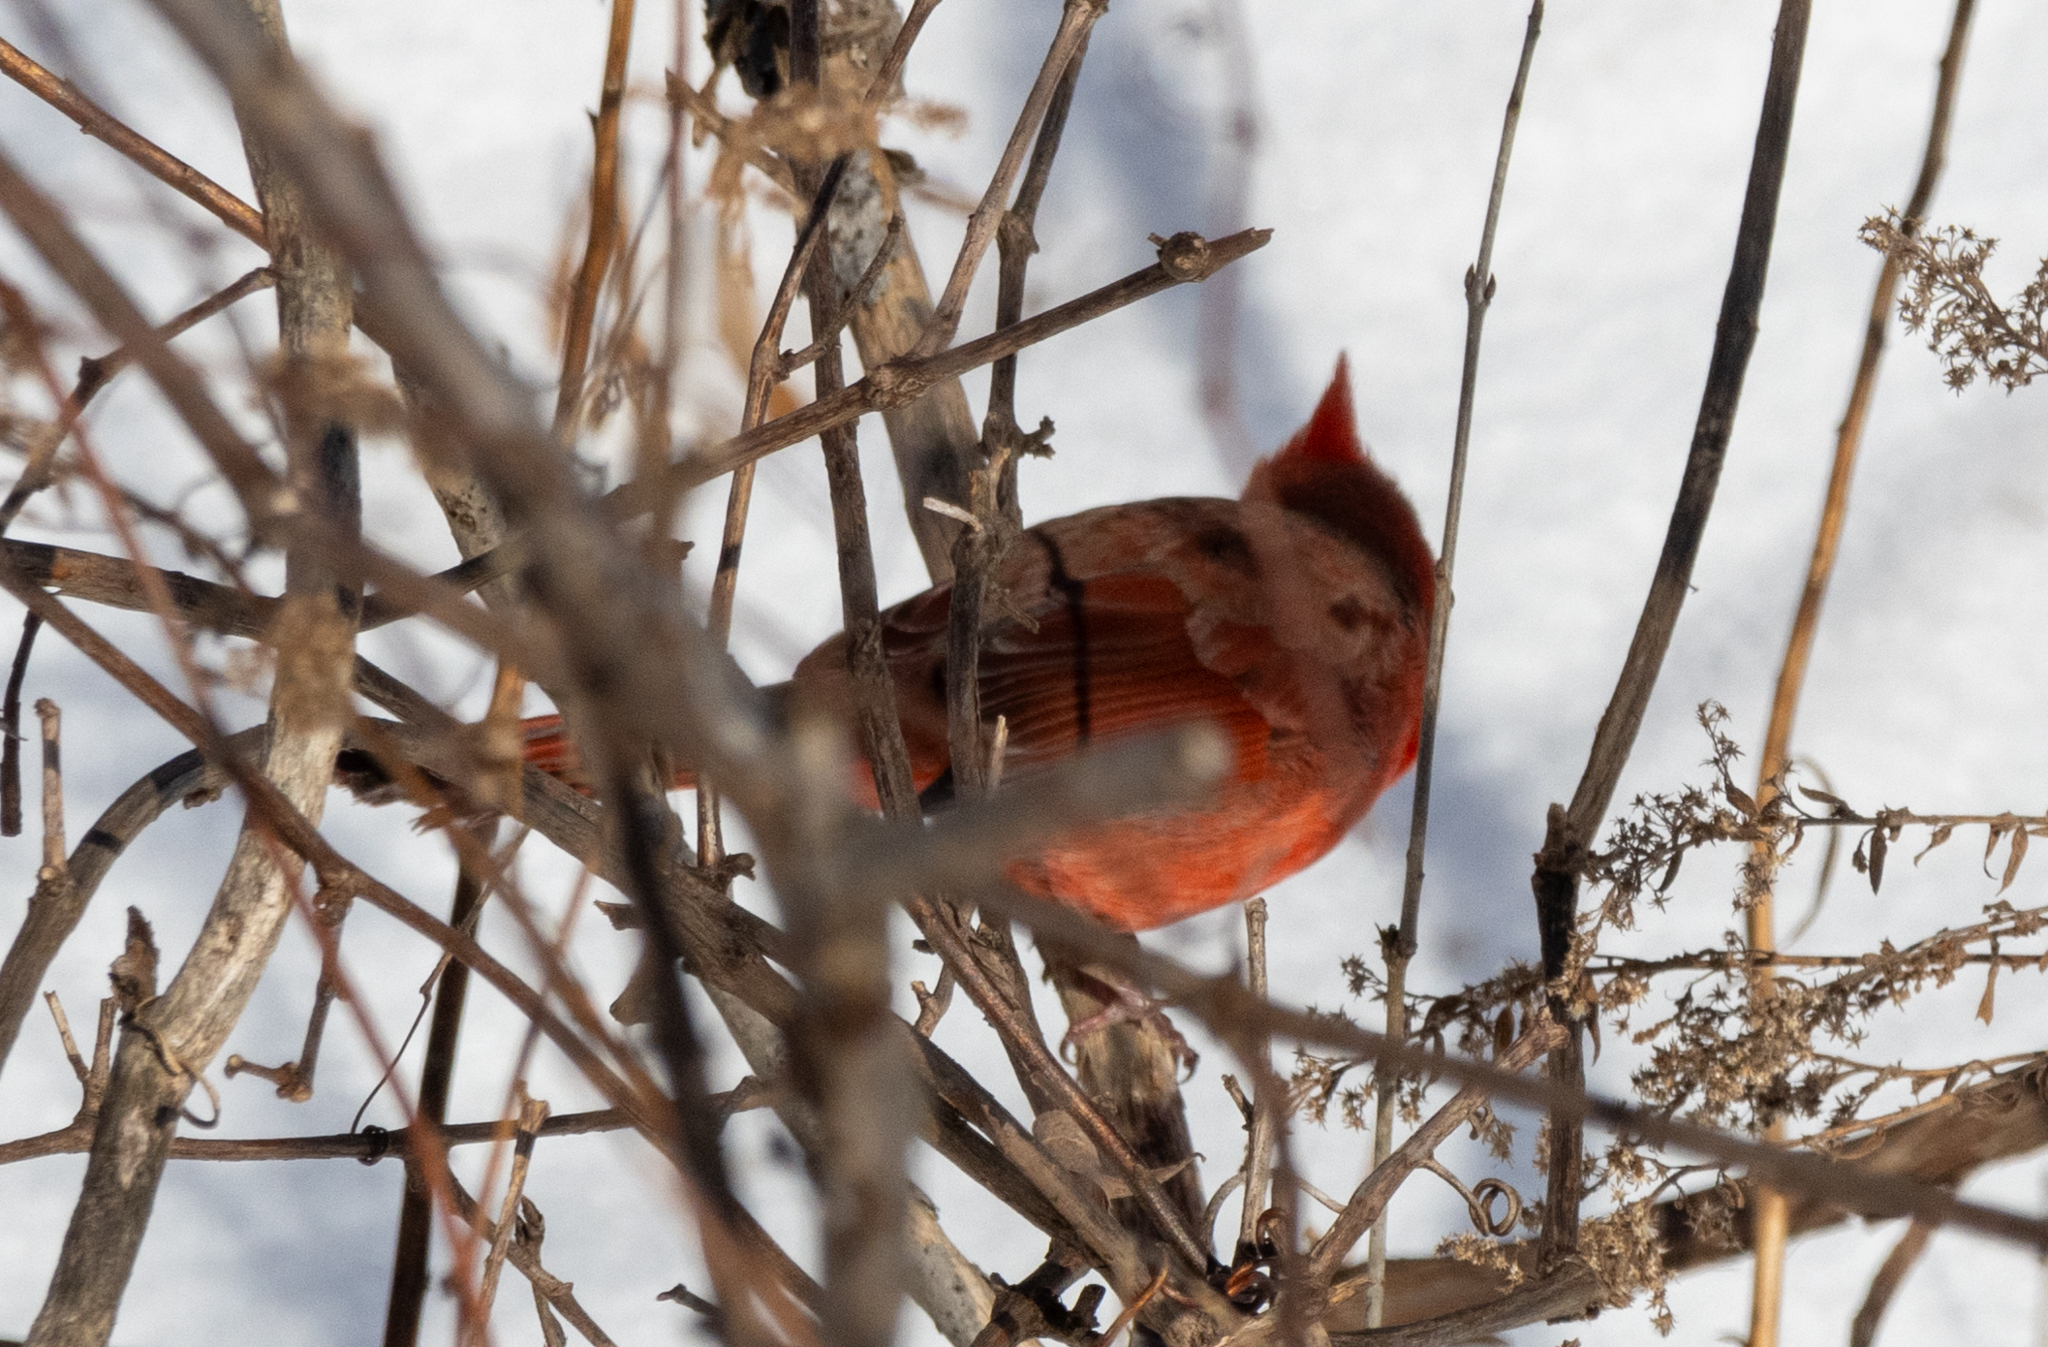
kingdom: Animalia
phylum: Chordata
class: Aves
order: Passeriformes
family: Cardinalidae
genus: Cardinalis
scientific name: Cardinalis cardinalis
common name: Northern cardinal
